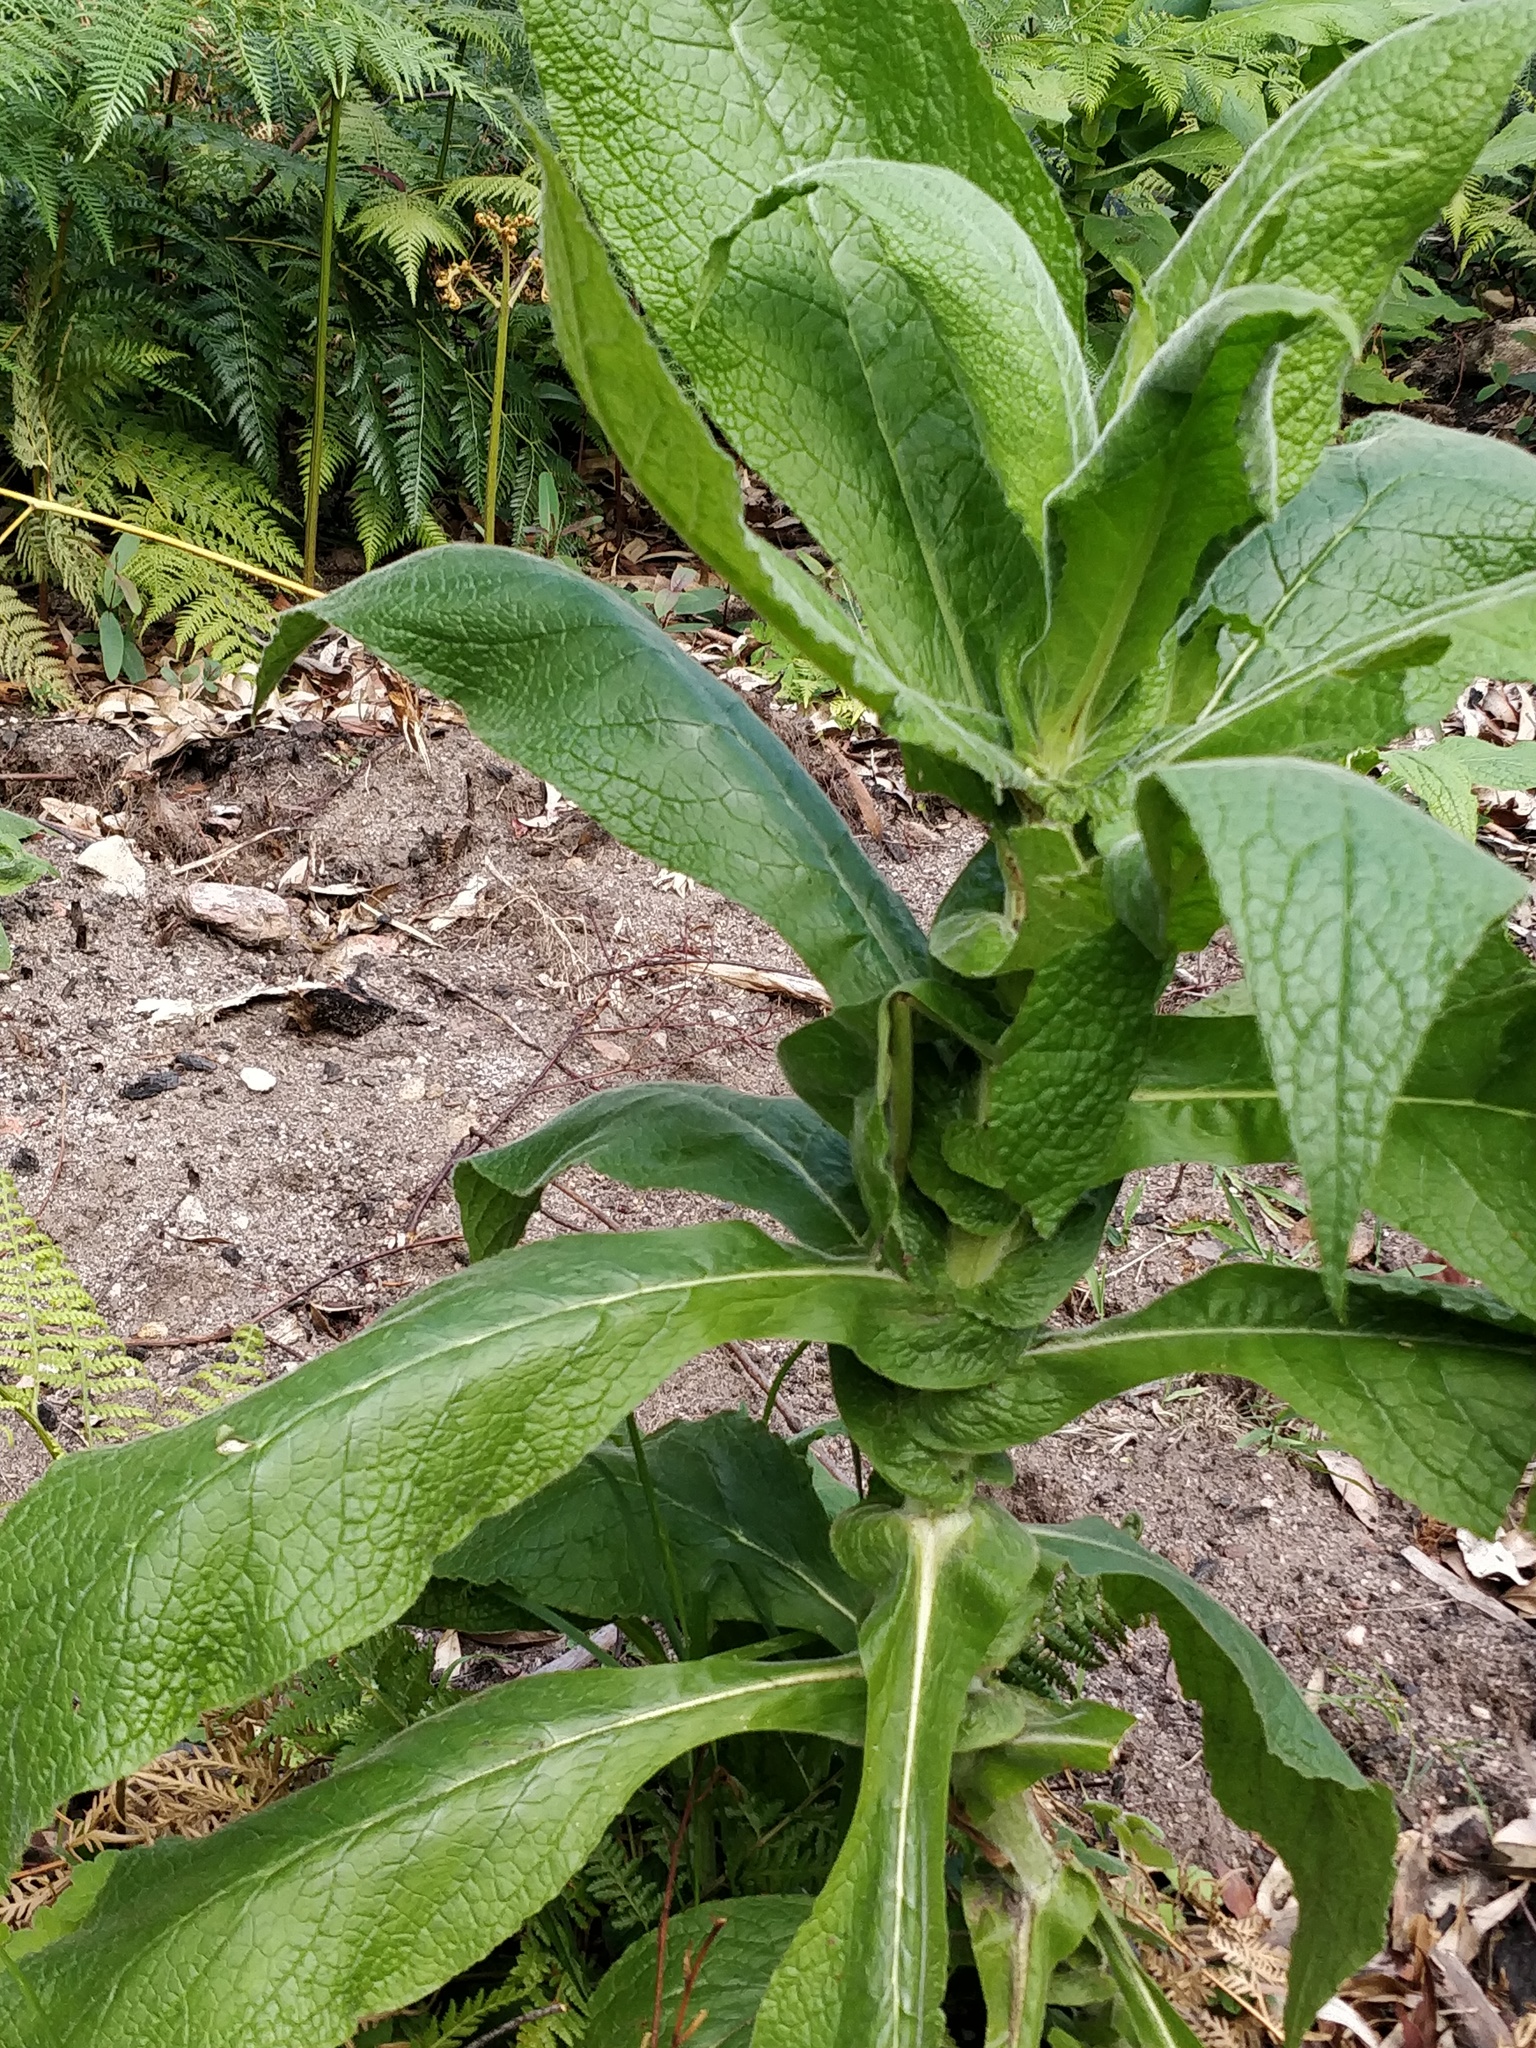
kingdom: Plantae
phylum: Tracheophyta
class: Magnoliopsida
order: Asterales
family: Asteraceae
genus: Calomeria
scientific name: Calomeria amaranthoides
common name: Incenseplant
